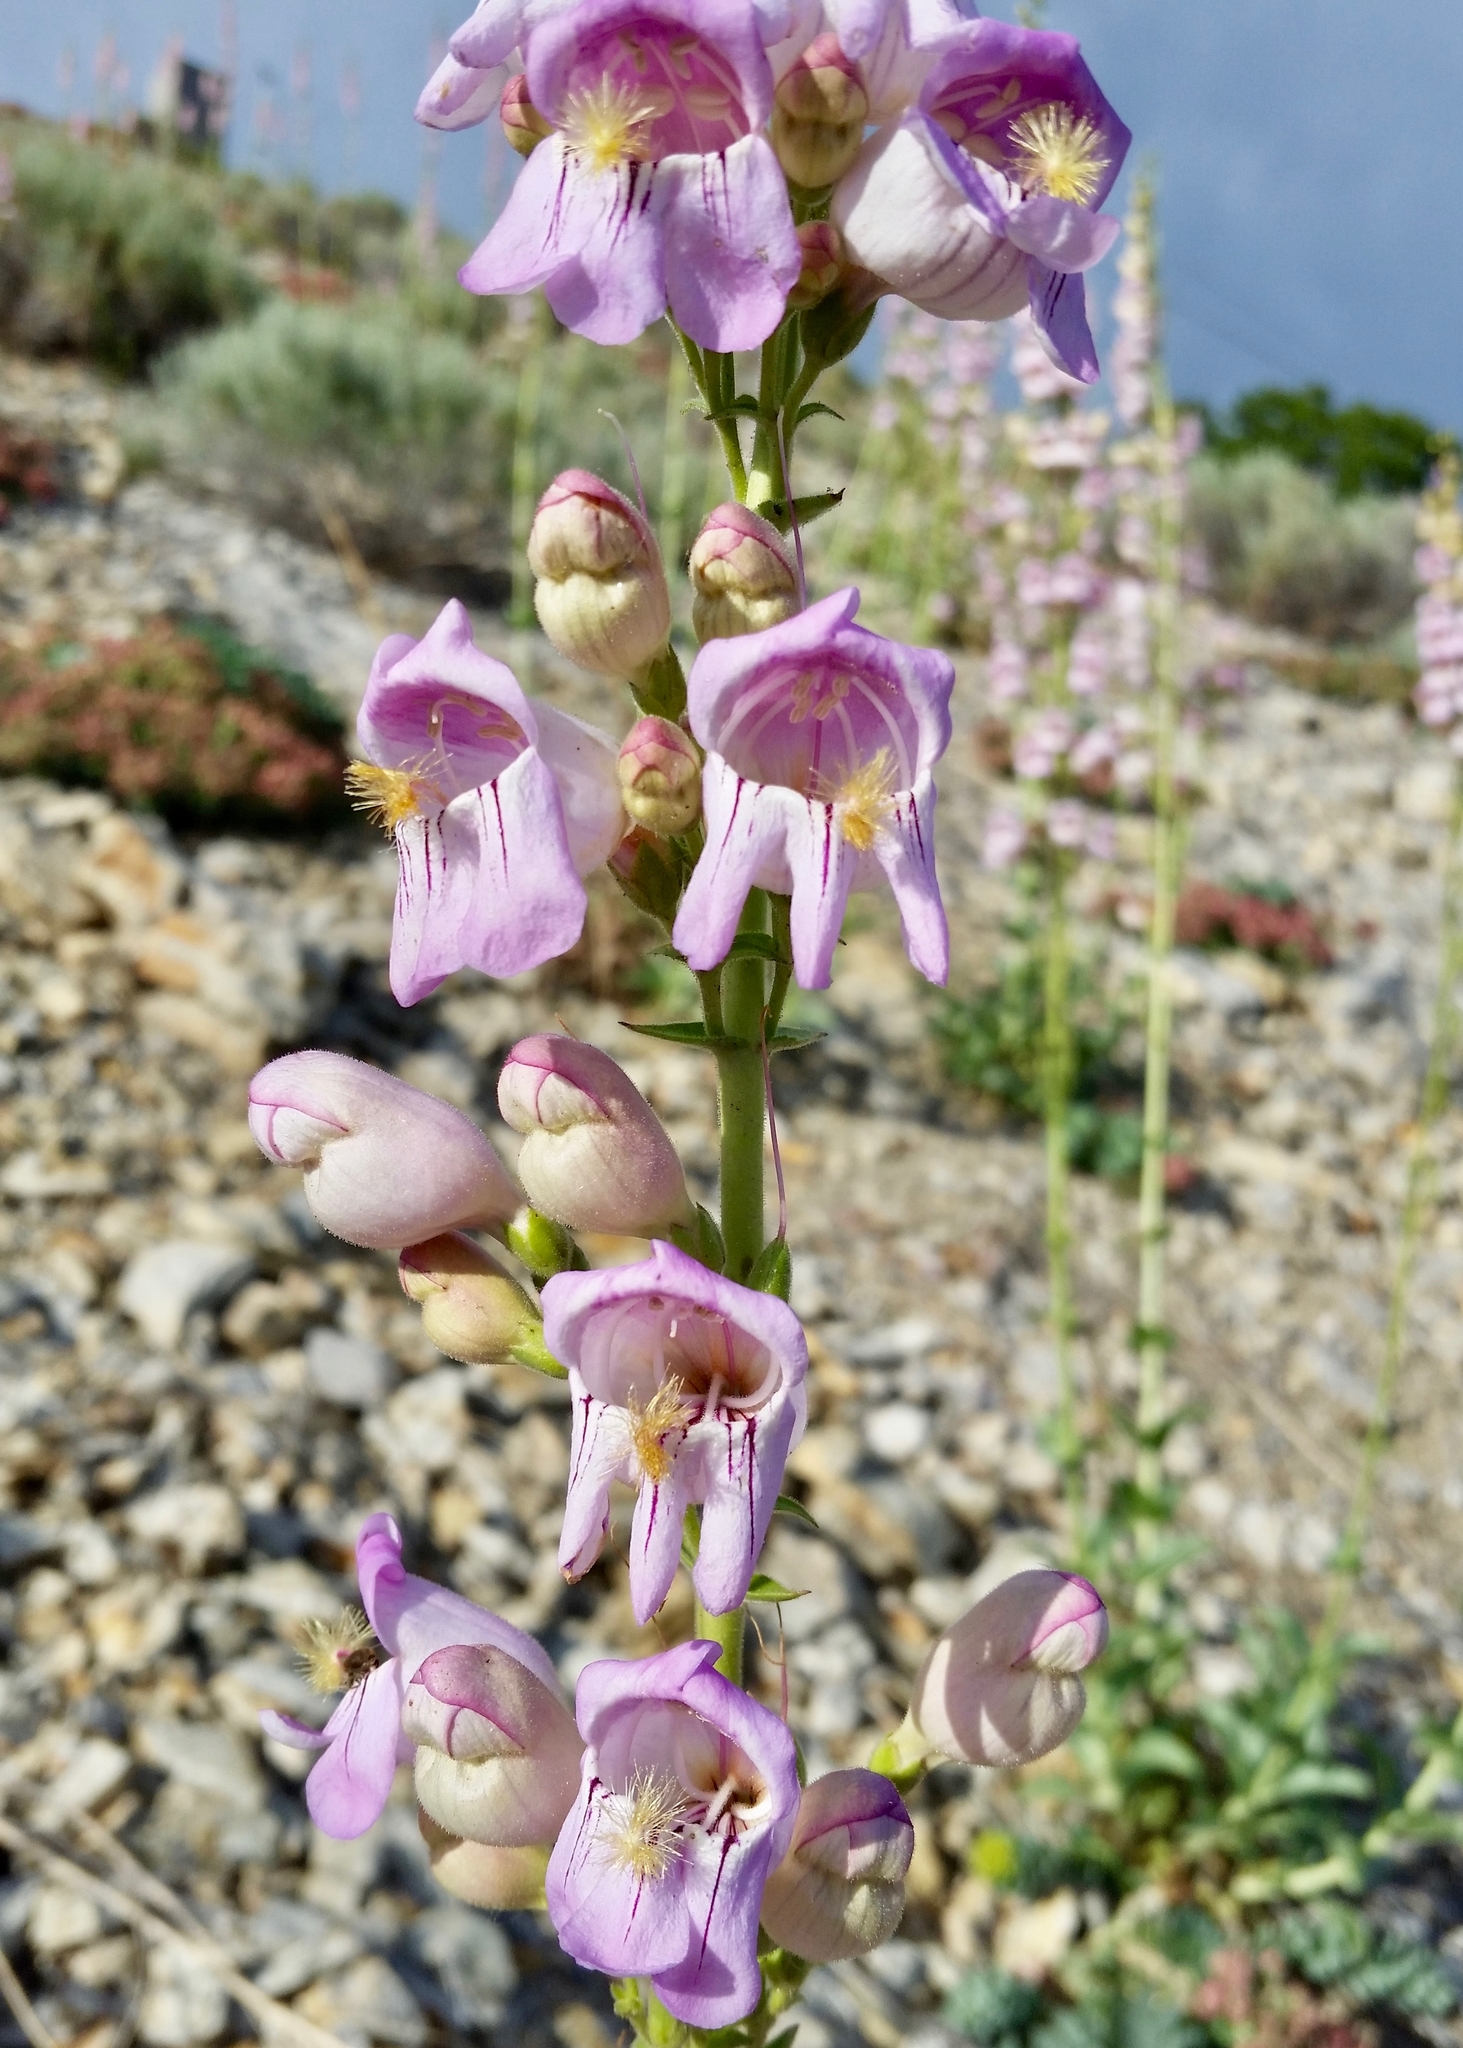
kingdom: Plantae
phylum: Tracheophyta
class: Magnoliopsida
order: Lamiales
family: Plantaginaceae
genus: Penstemon
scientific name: Penstemon palmeri
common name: Palmer penstemon
